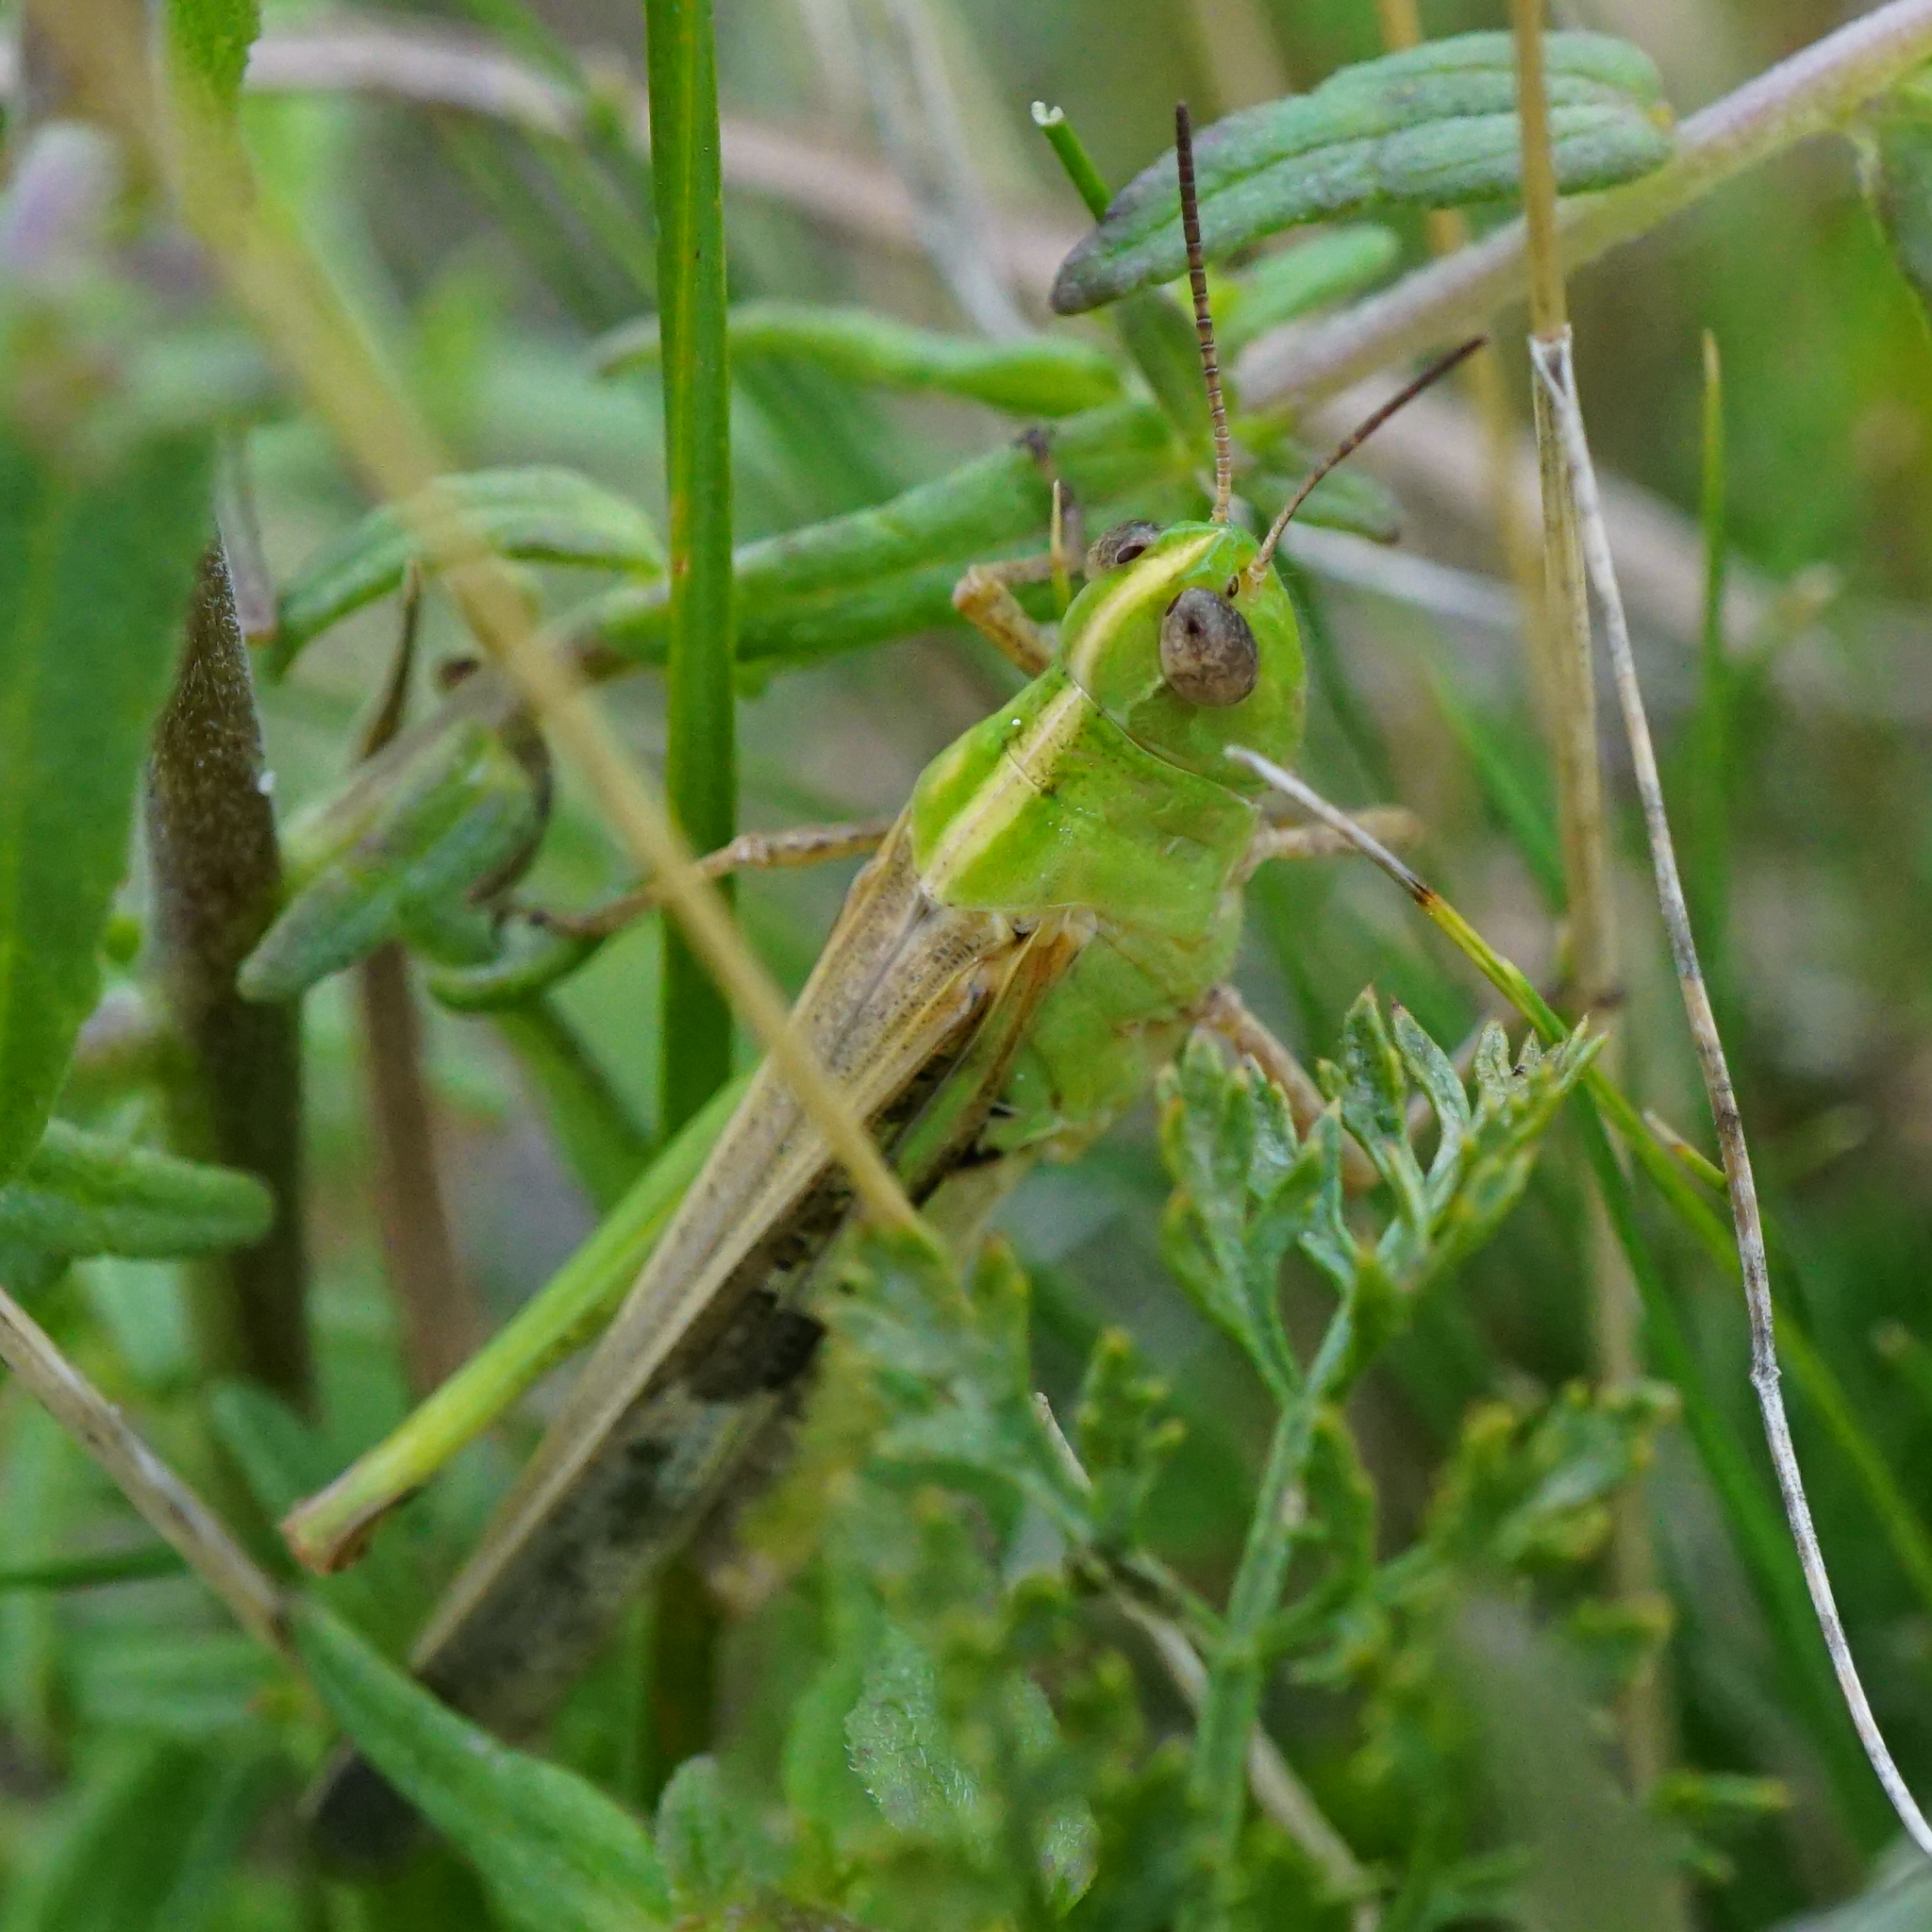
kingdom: Animalia
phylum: Arthropoda
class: Insecta
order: Orthoptera
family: Acrididae
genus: Aiolopus
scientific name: Aiolopus thalassinus
